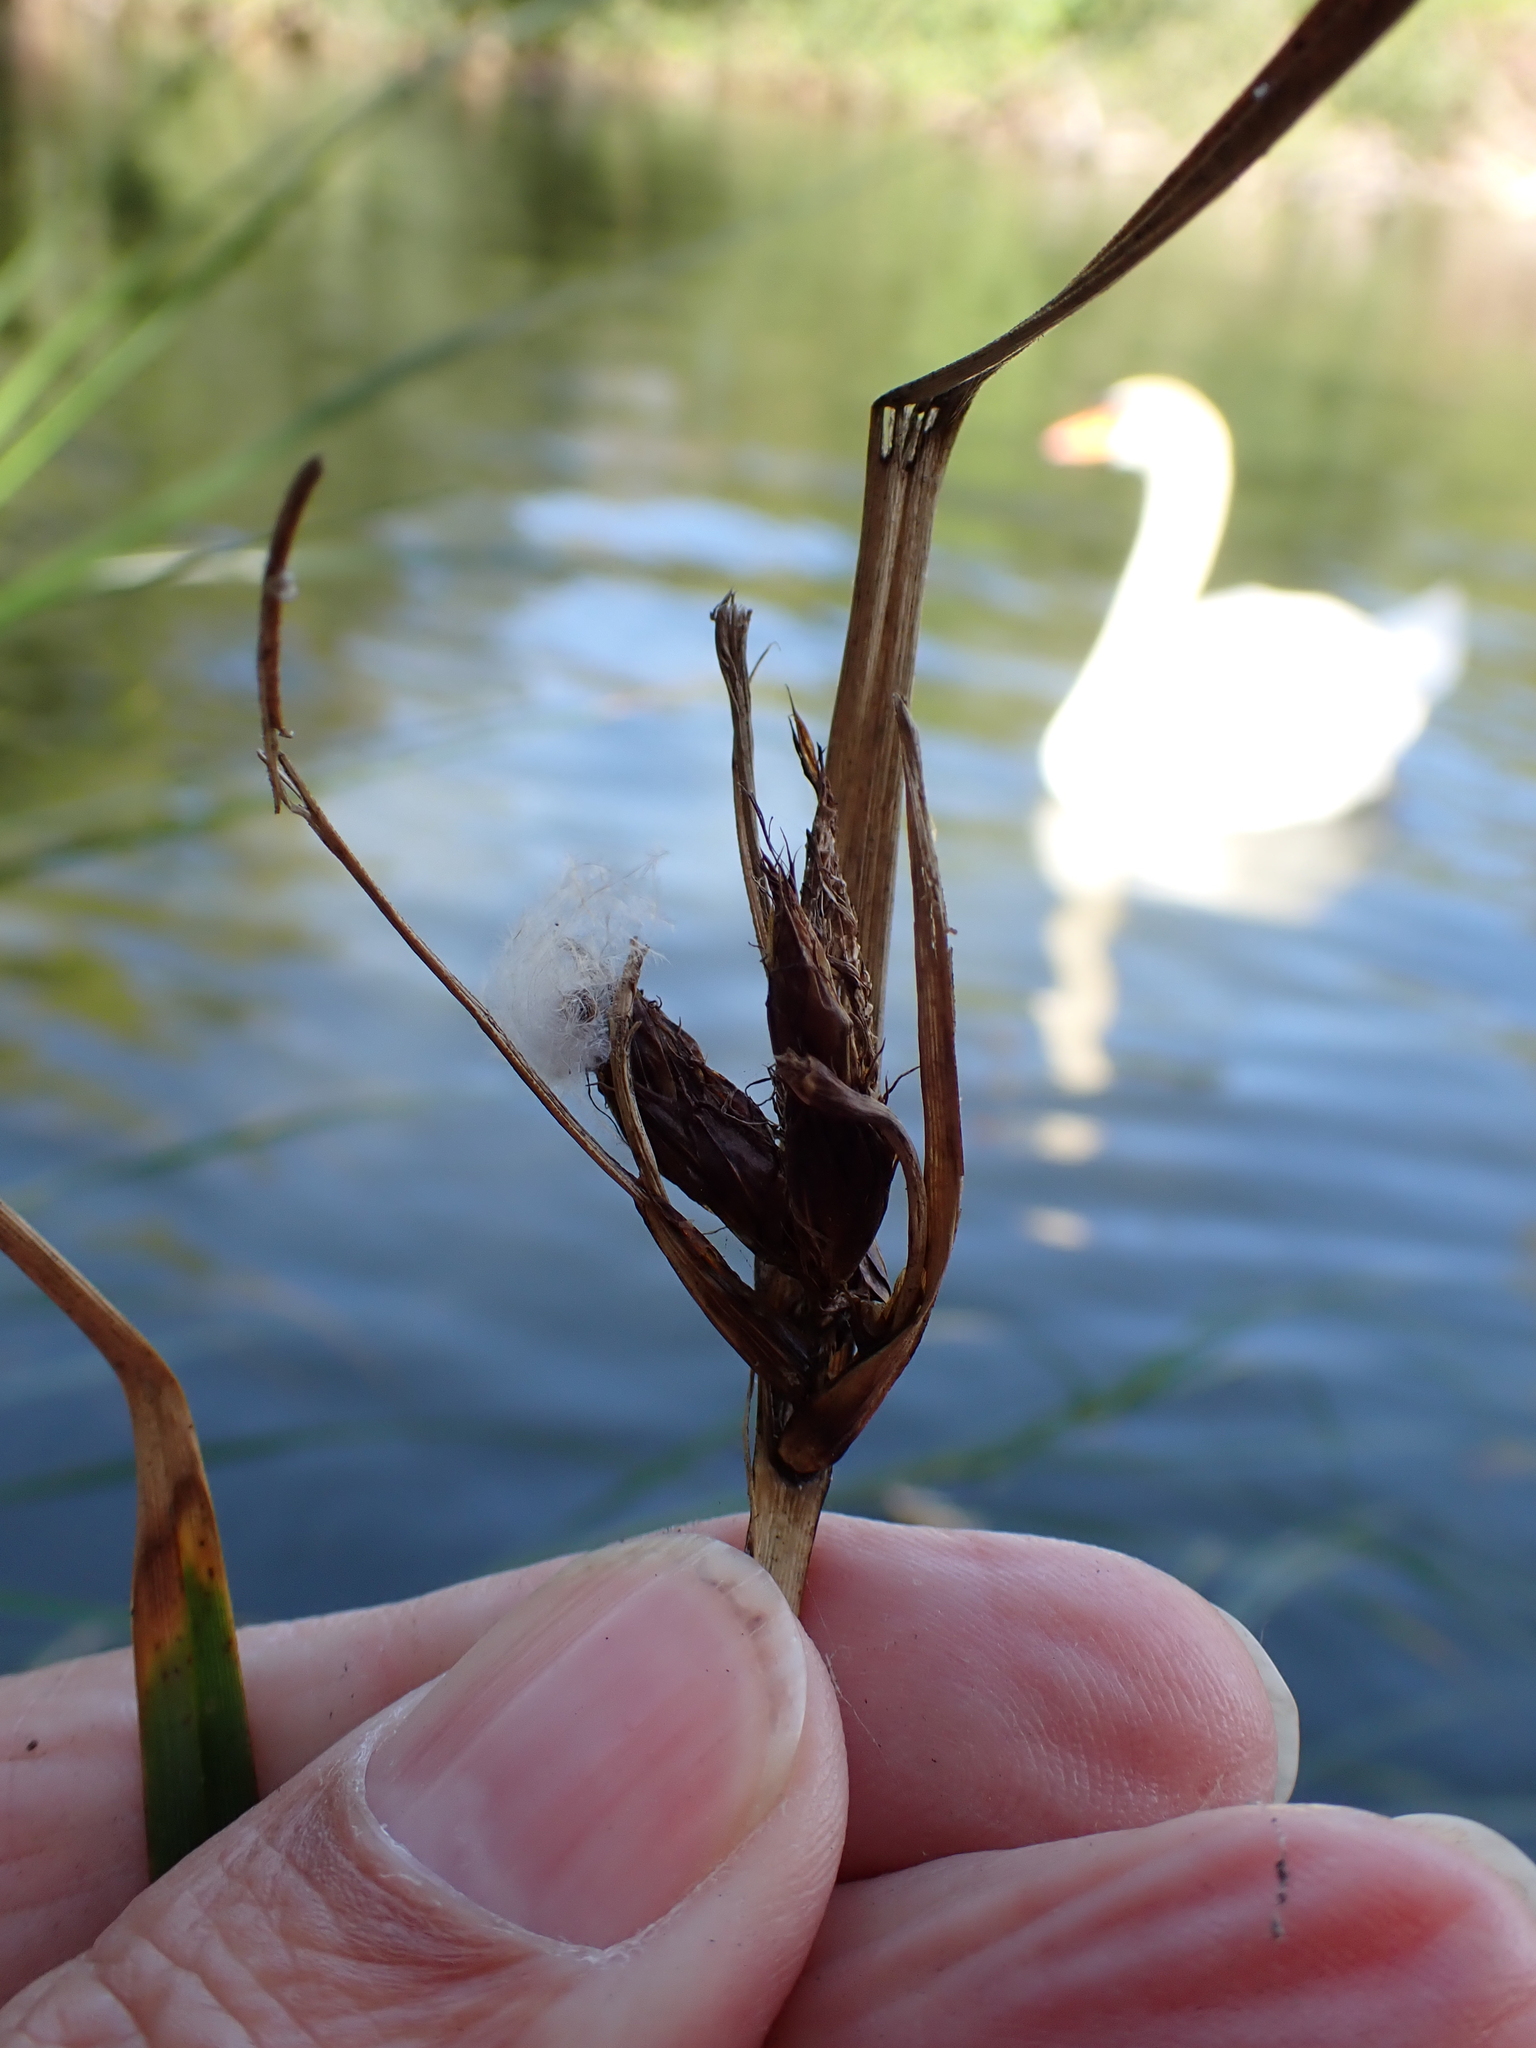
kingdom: Plantae
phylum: Tracheophyta
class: Liliopsida
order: Poales
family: Cyperaceae
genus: Bolboschoenus
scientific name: Bolboschoenus maritimus
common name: Sea club-rush
